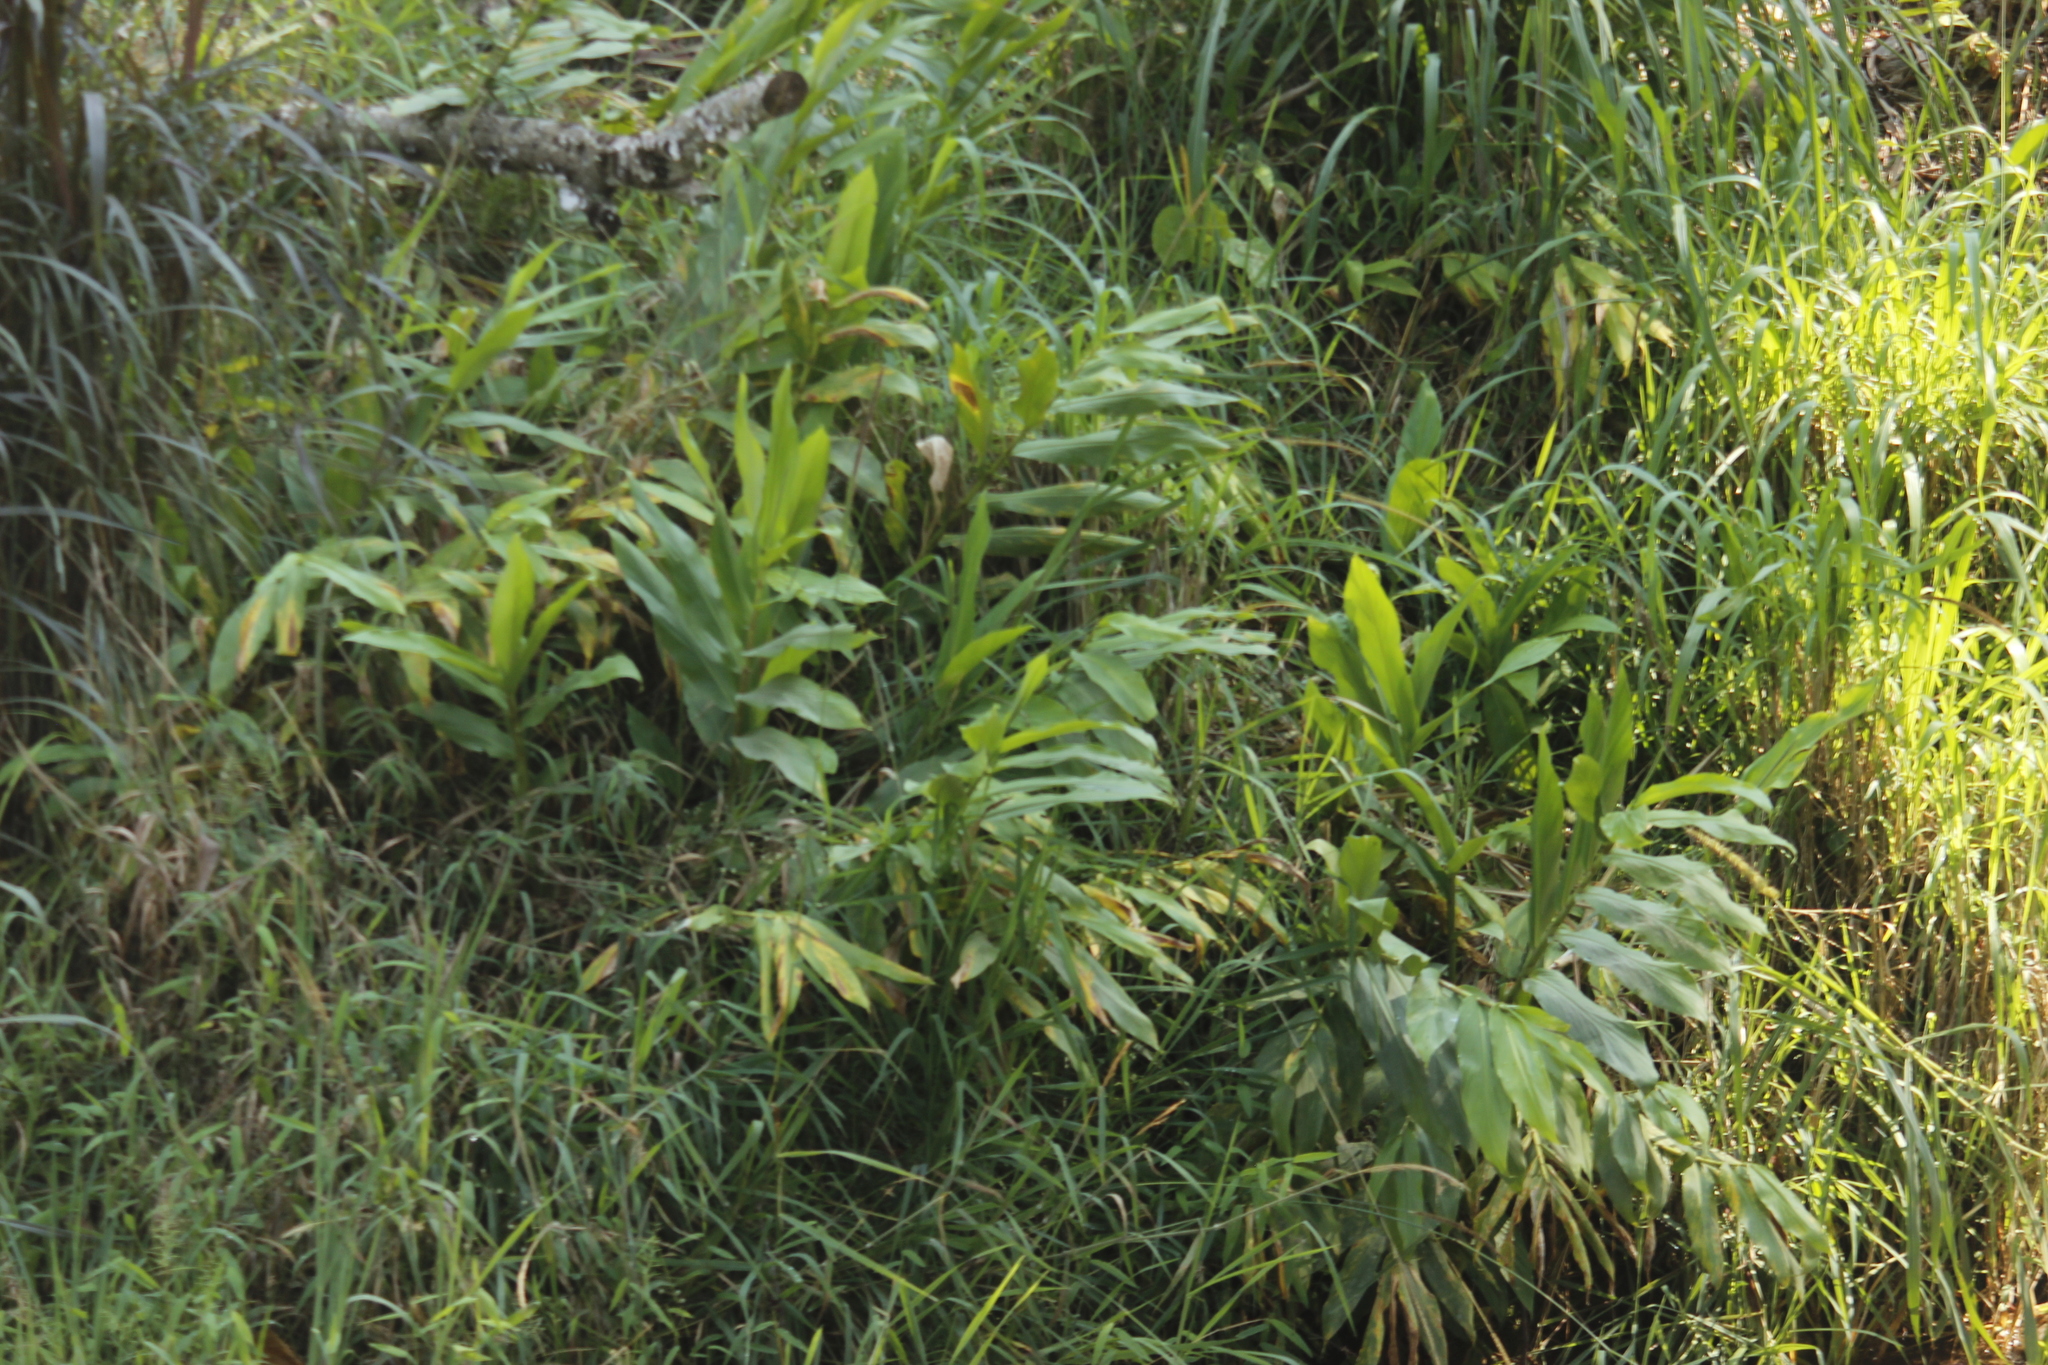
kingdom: Plantae
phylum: Tracheophyta
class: Liliopsida
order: Zingiberales
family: Zingiberaceae
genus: Hedychium
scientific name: Hedychium coronarium
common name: White garland-lily
